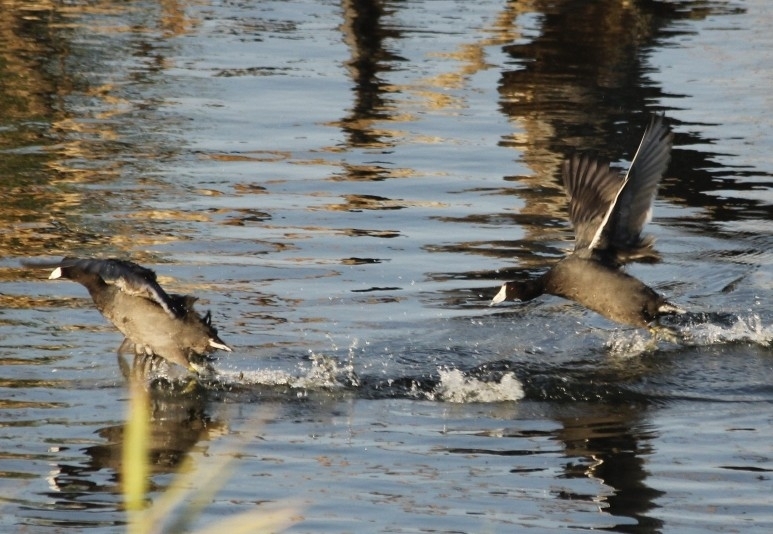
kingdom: Animalia
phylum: Chordata
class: Aves
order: Gruiformes
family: Rallidae
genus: Fulica
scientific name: Fulica americana
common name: American coot
